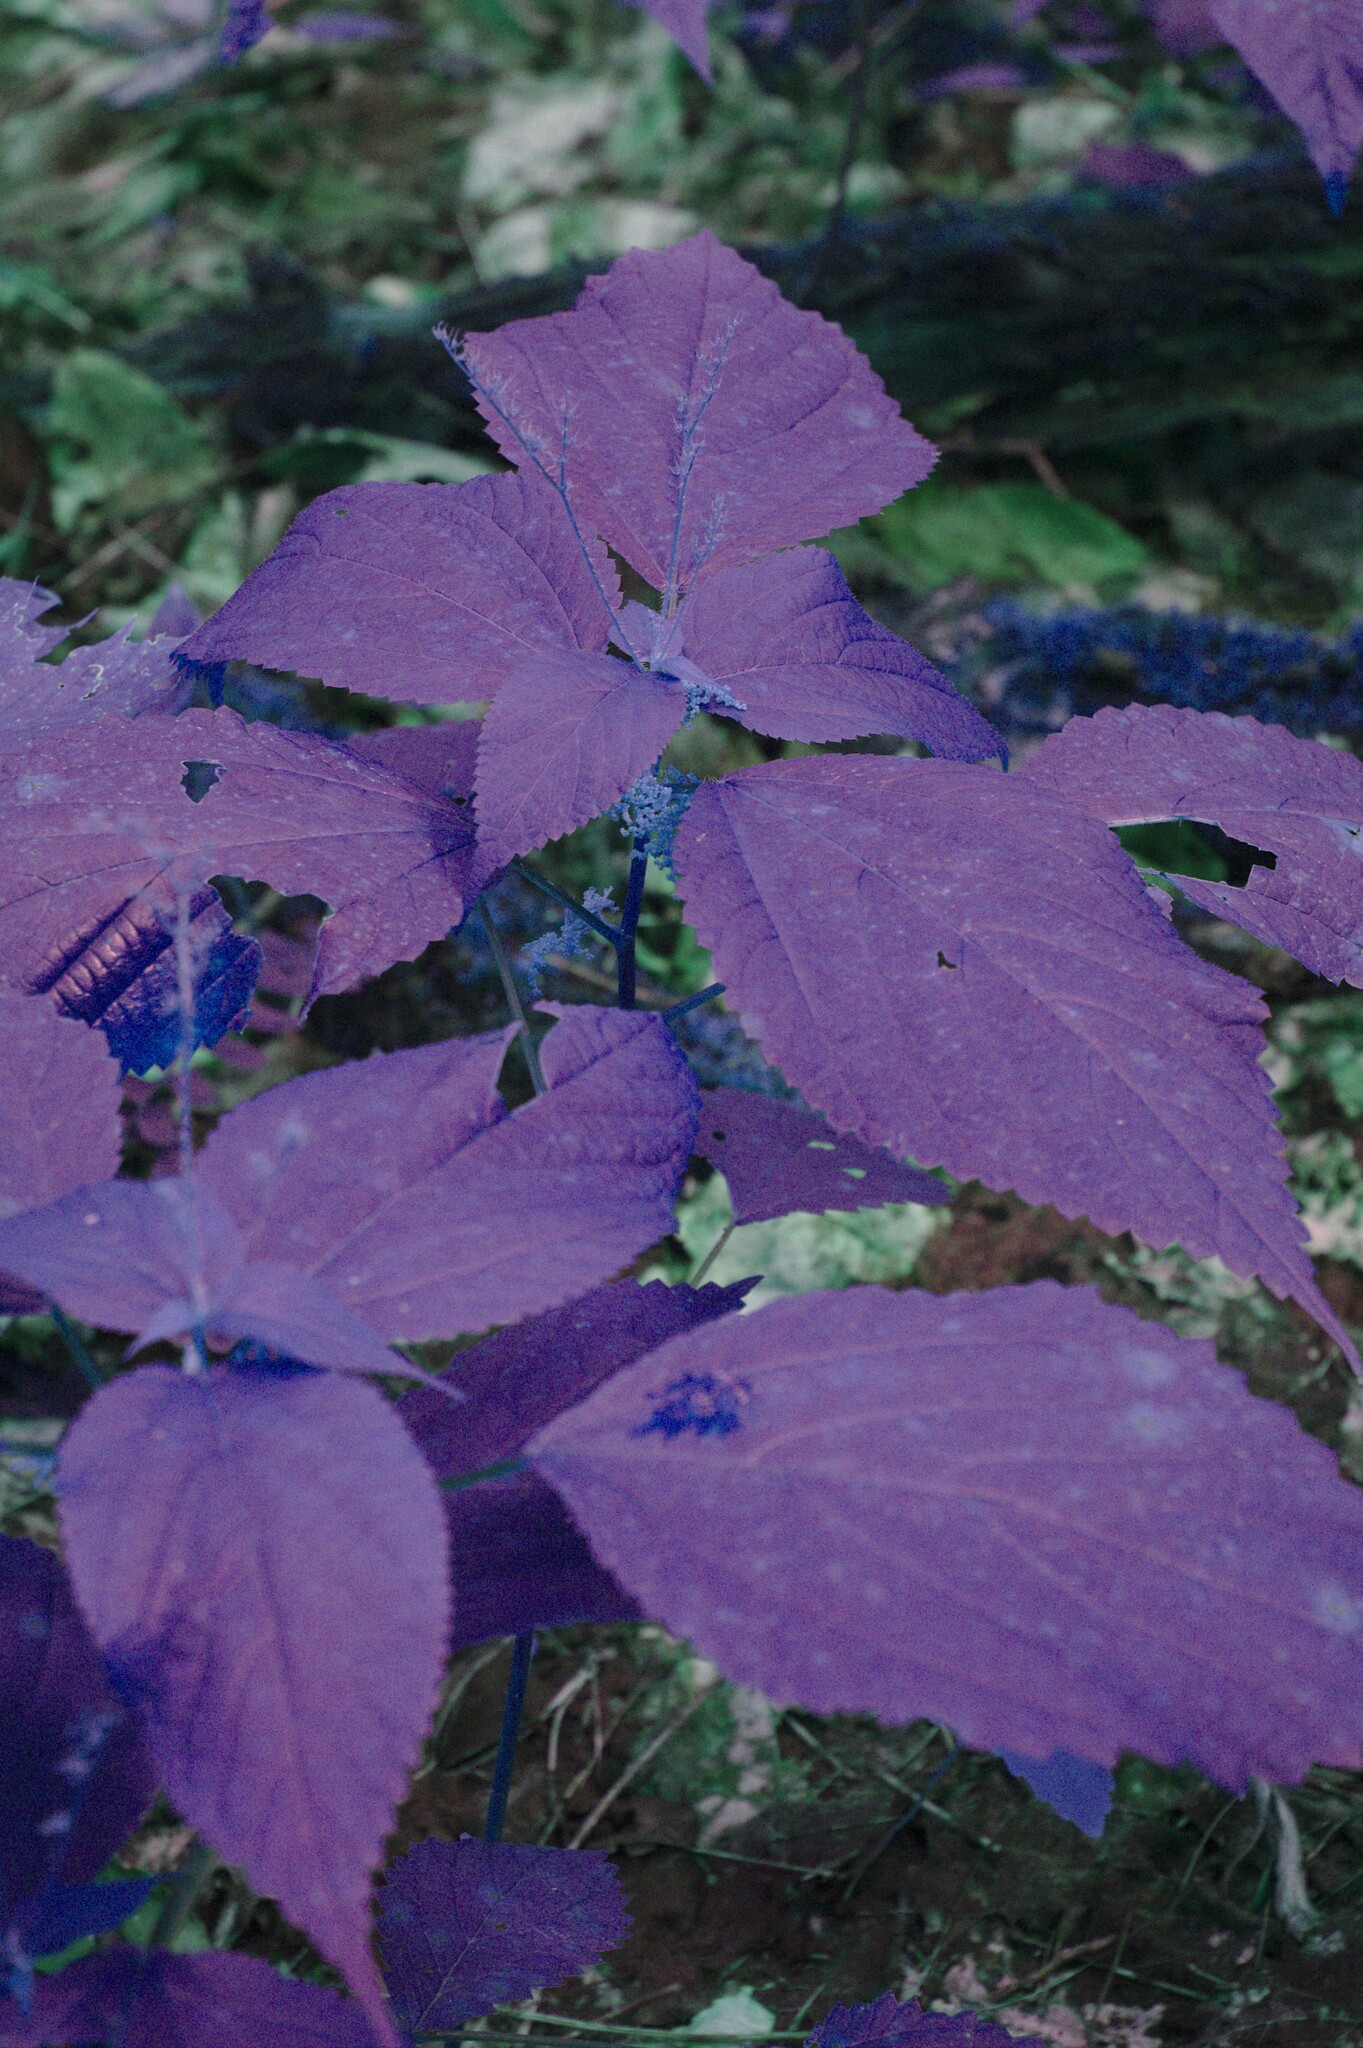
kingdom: Plantae
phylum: Tracheophyta
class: Magnoliopsida
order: Rosales
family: Urticaceae
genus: Laportea
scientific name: Laportea canadensis
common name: Canada nettle
